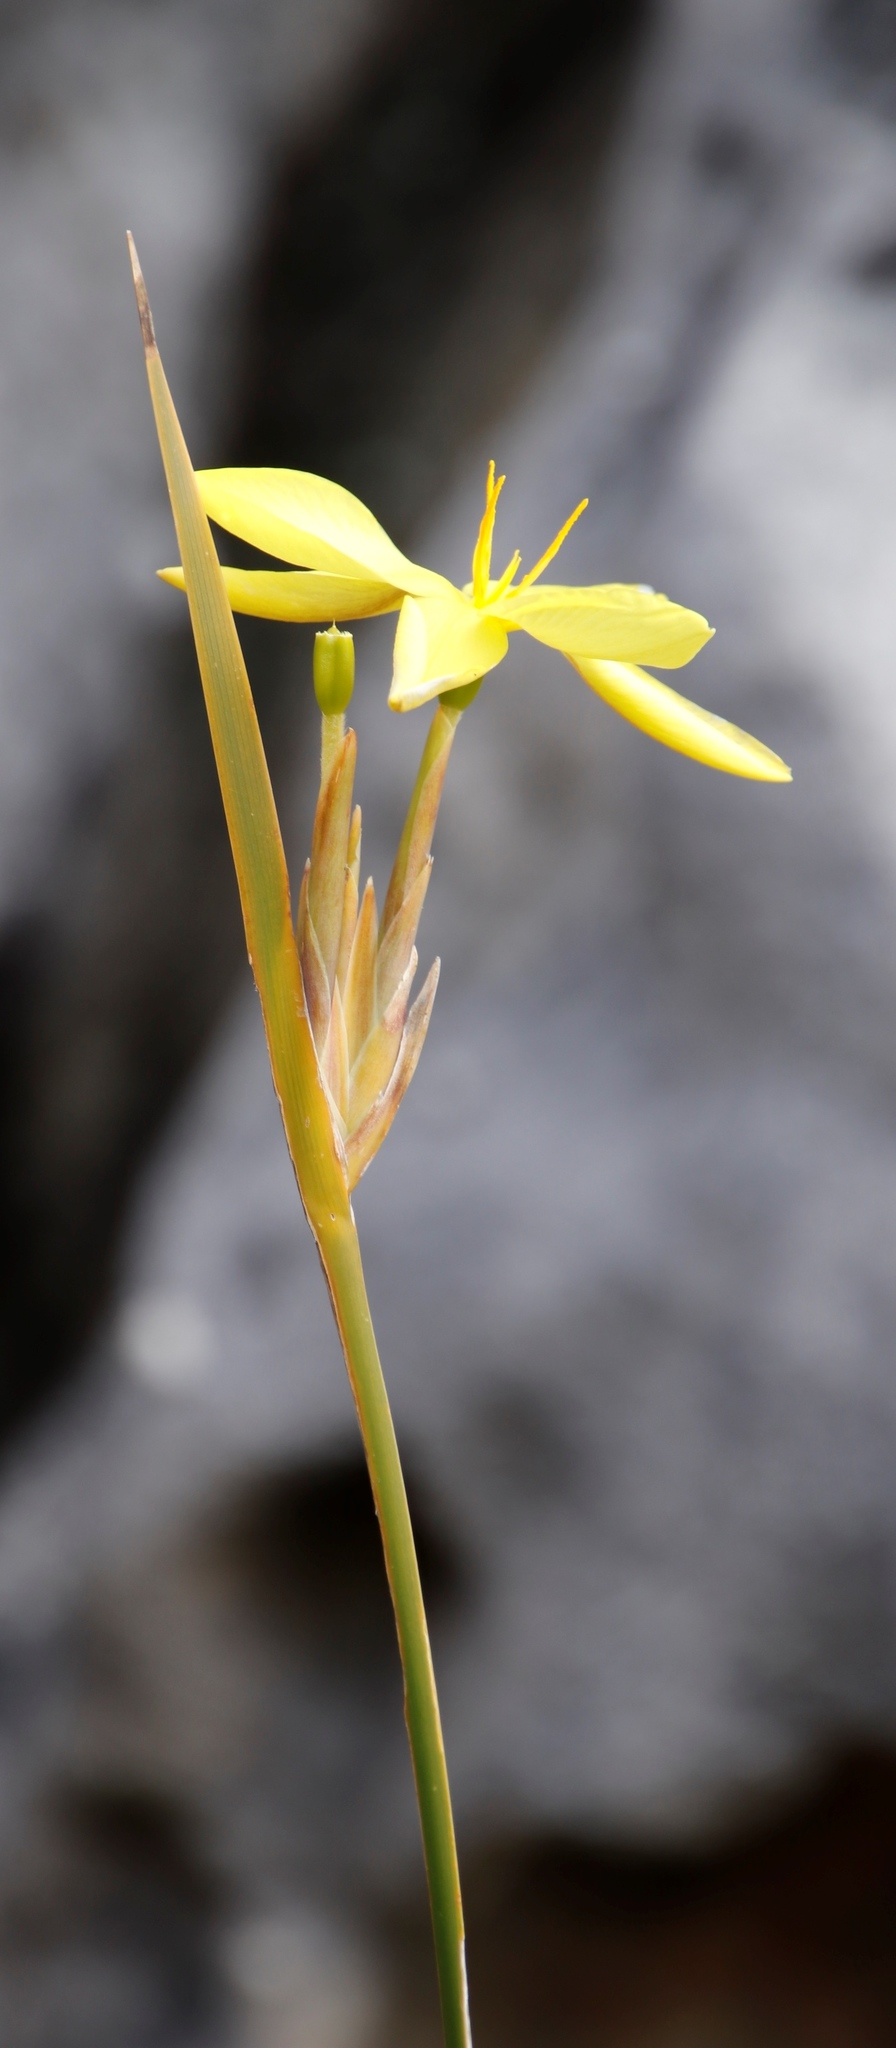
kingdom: Plantae
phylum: Tracheophyta
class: Liliopsida
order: Asparagales
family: Iridaceae
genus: Bobartia
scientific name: Bobartia gladiata
